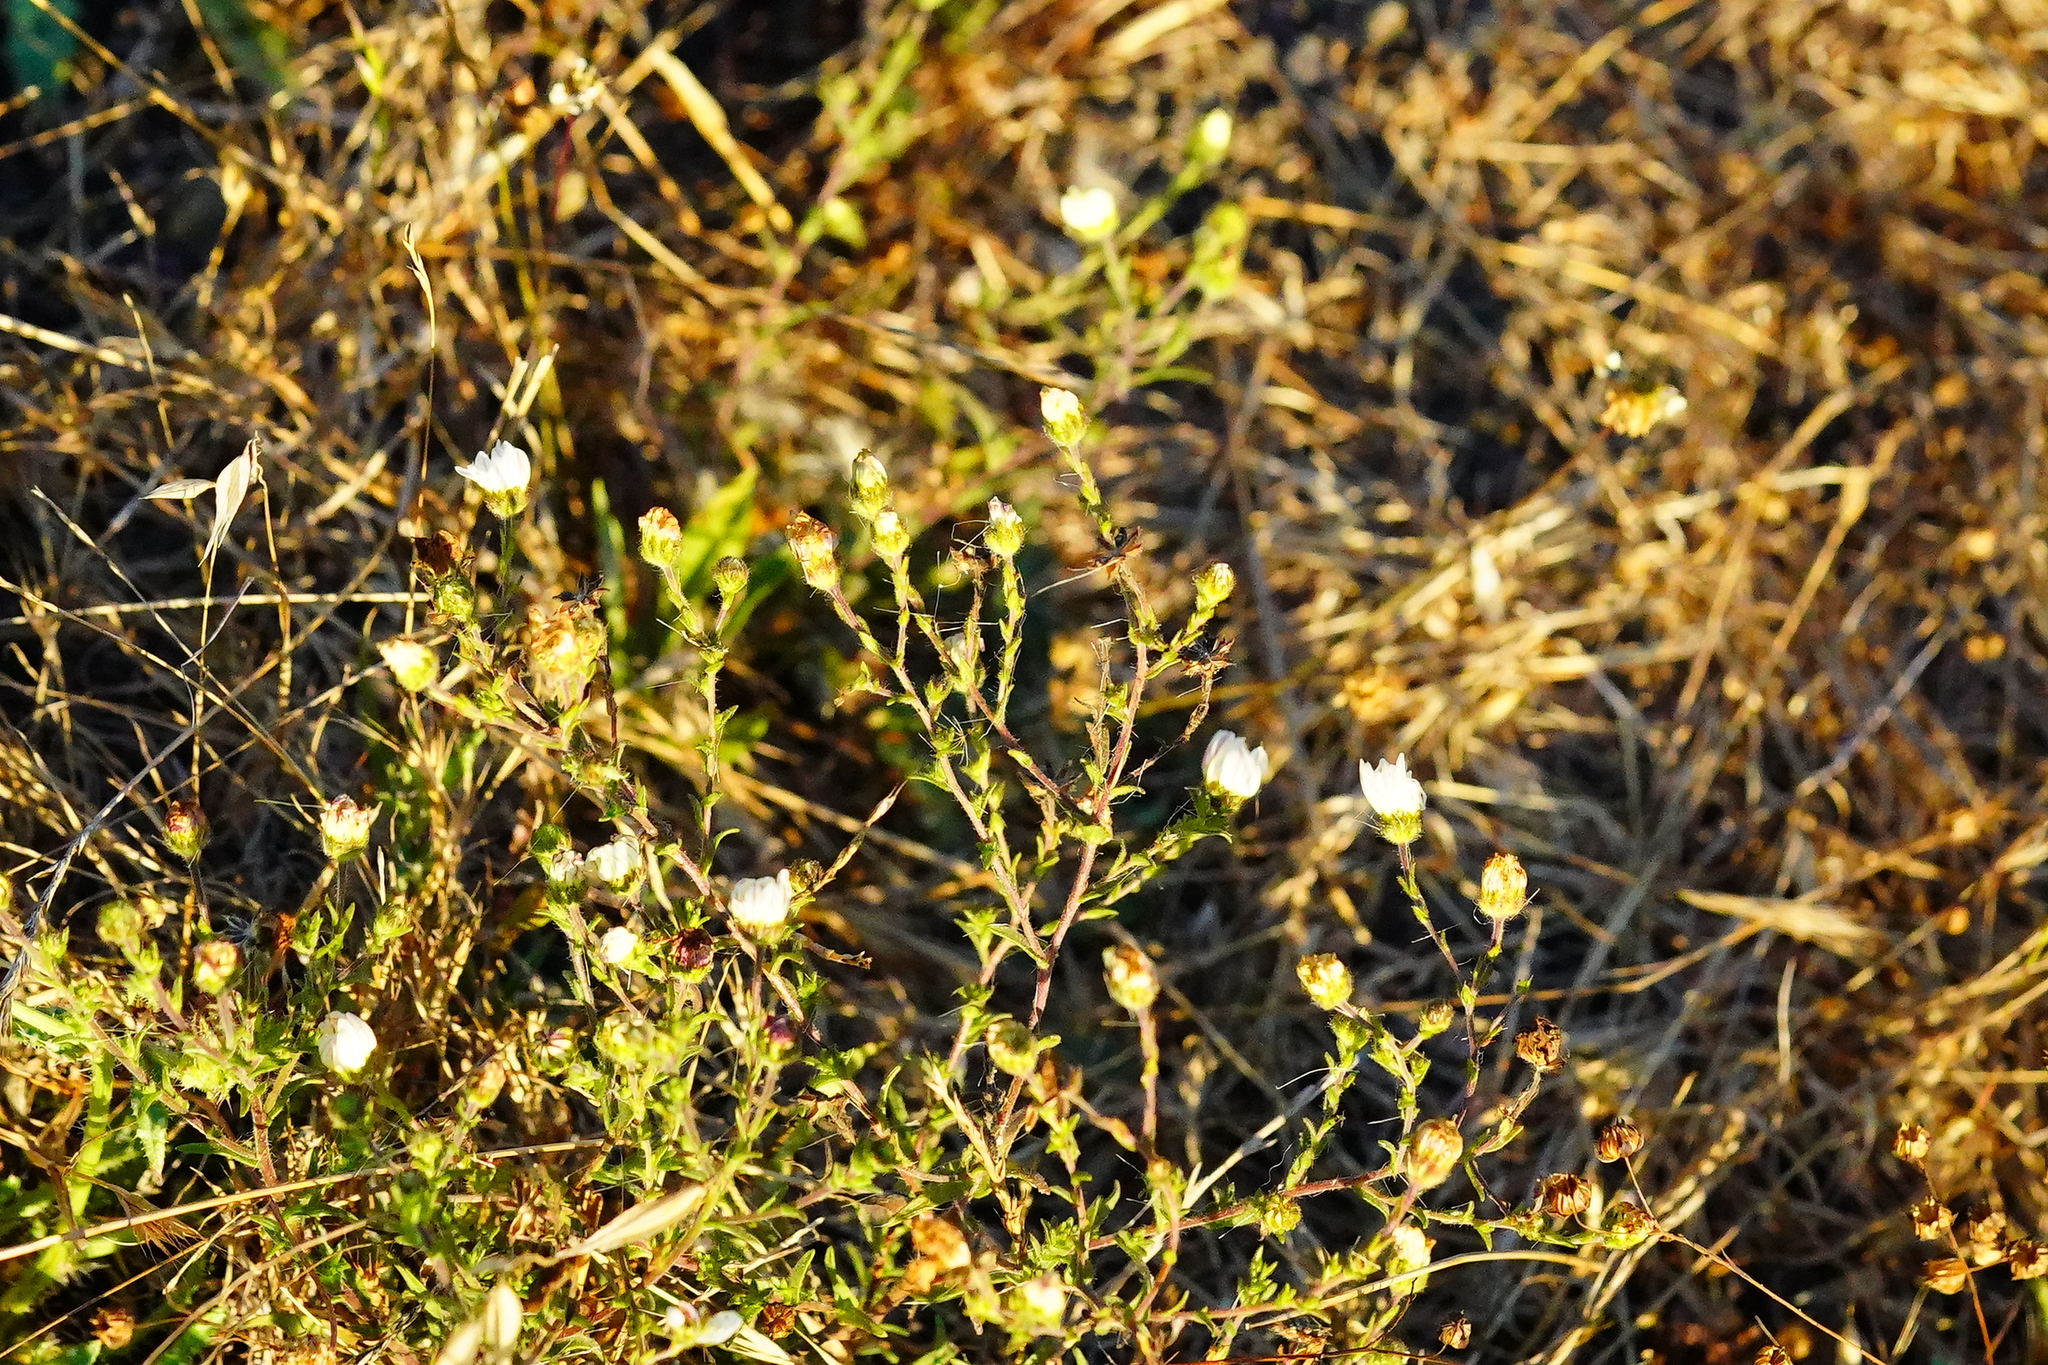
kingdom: Plantae
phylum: Tracheophyta
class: Magnoliopsida
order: Asterales
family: Asteraceae
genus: Hemizonia
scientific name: Hemizonia congesta
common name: Hayfield tarweed
